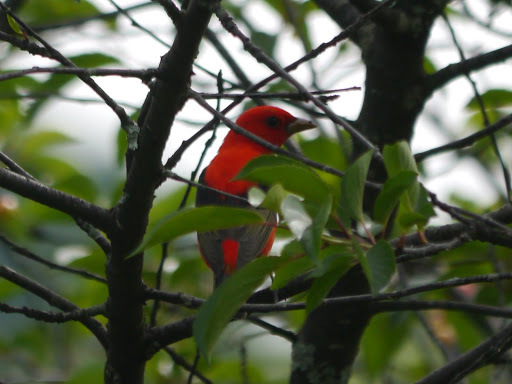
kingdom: Animalia
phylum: Chordata
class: Aves
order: Passeriformes
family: Cardinalidae
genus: Piranga
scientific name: Piranga olivacea
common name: Scarlet tanager
